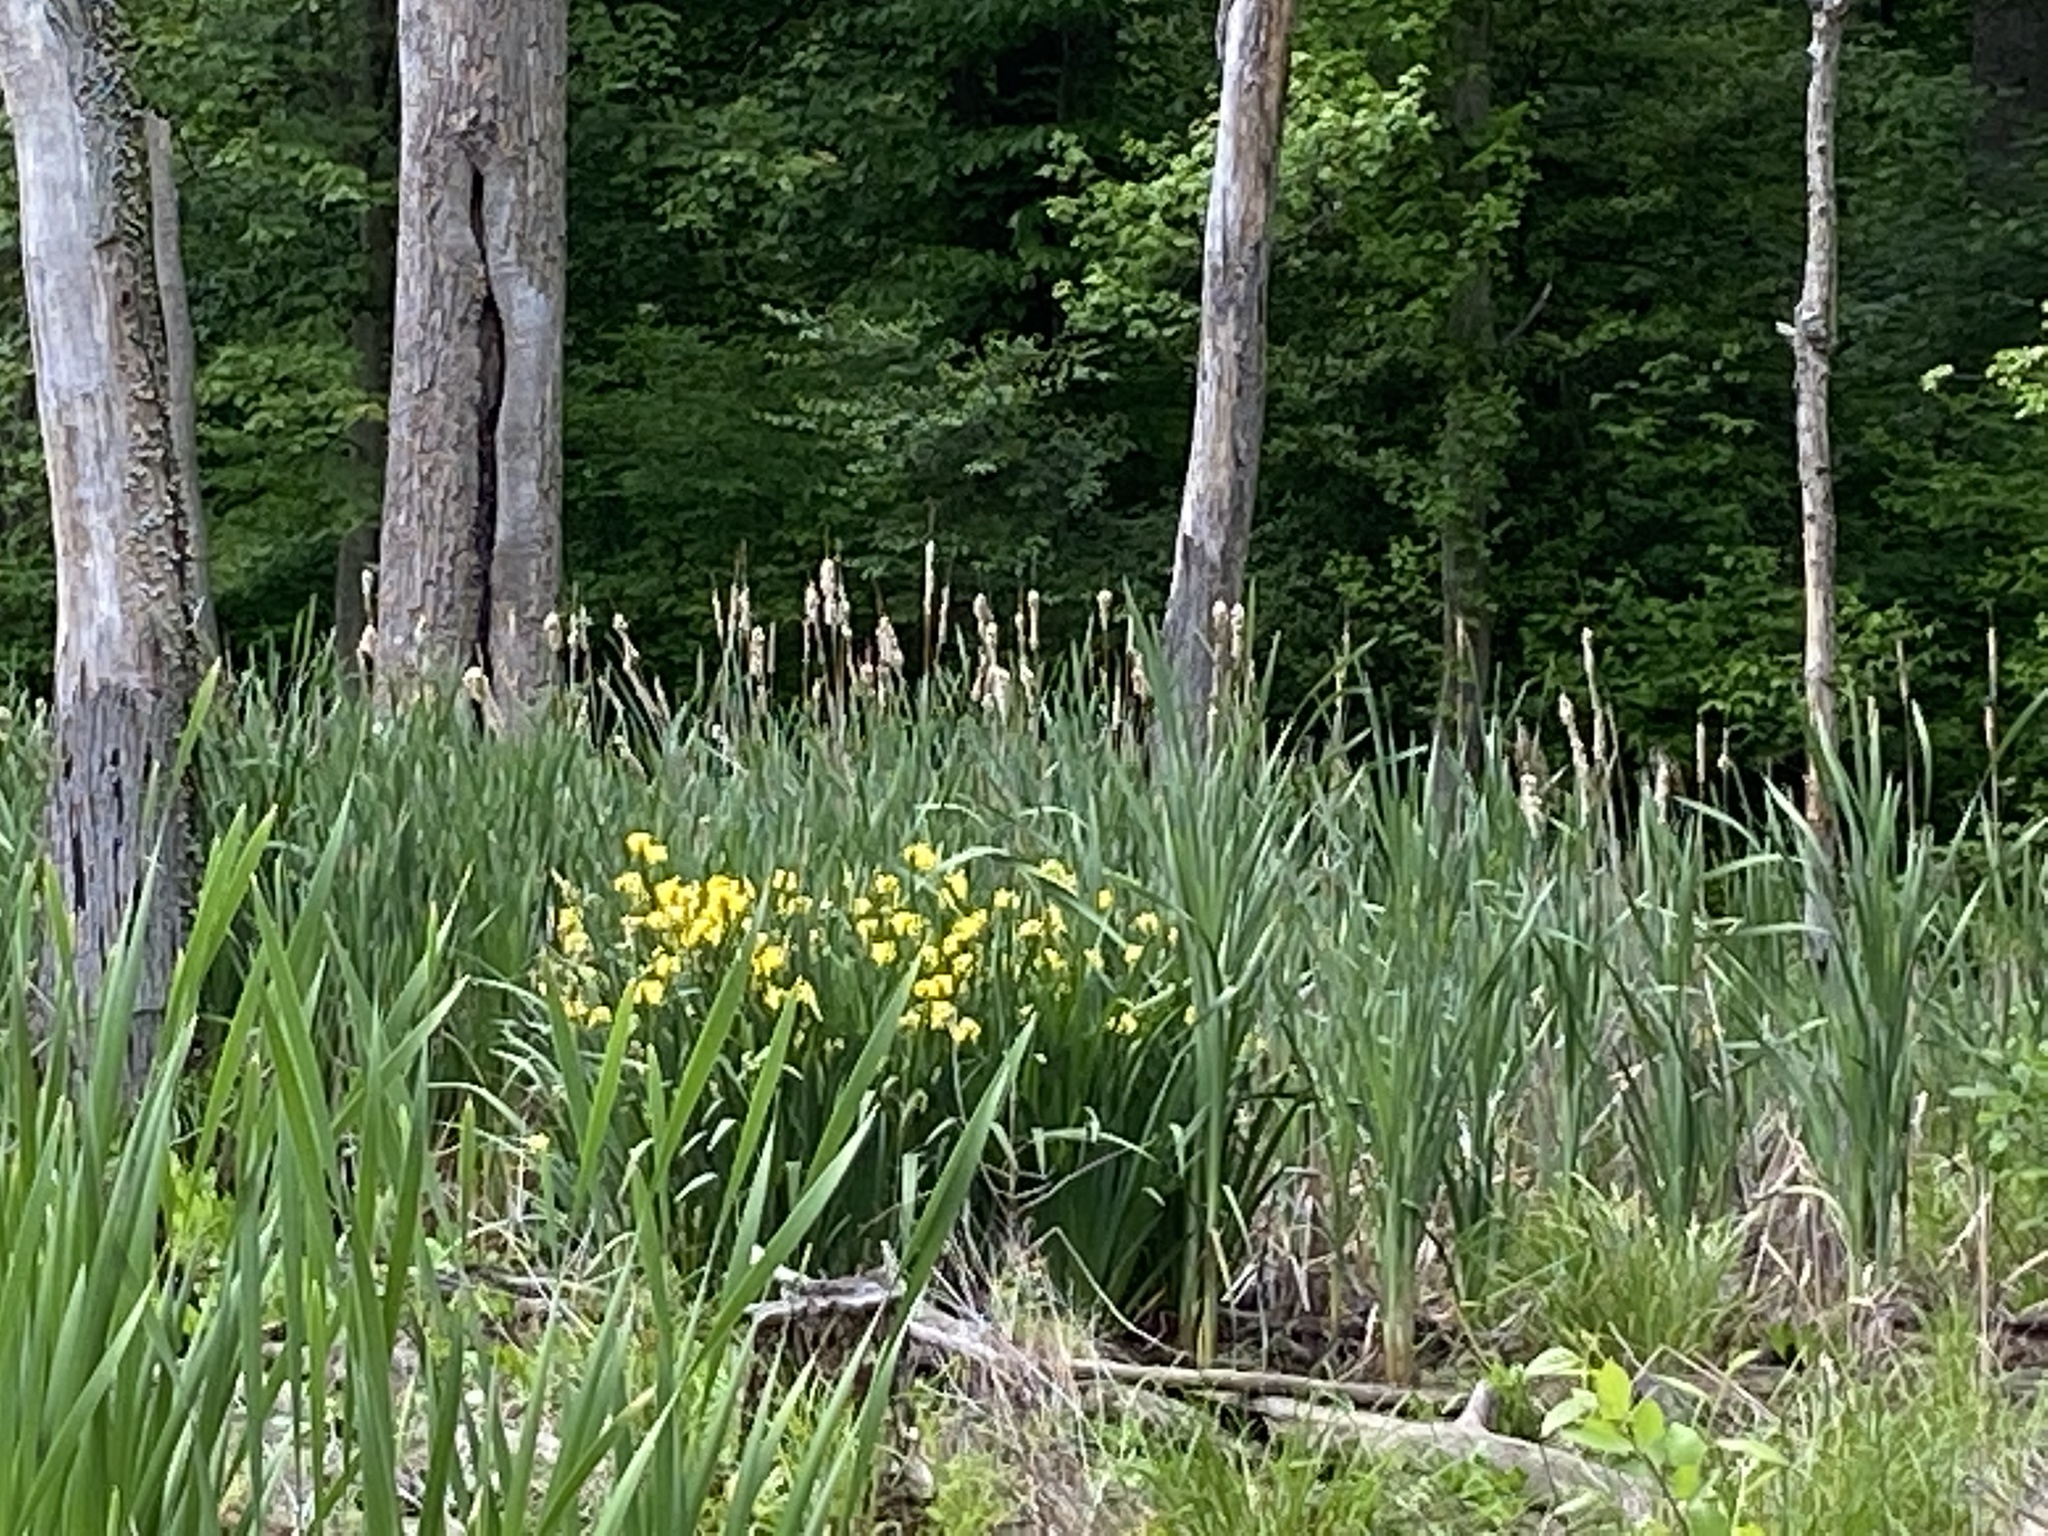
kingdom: Plantae
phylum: Tracheophyta
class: Liliopsida
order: Asparagales
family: Iridaceae
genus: Iris
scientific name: Iris pseudacorus
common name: Yellow flag
